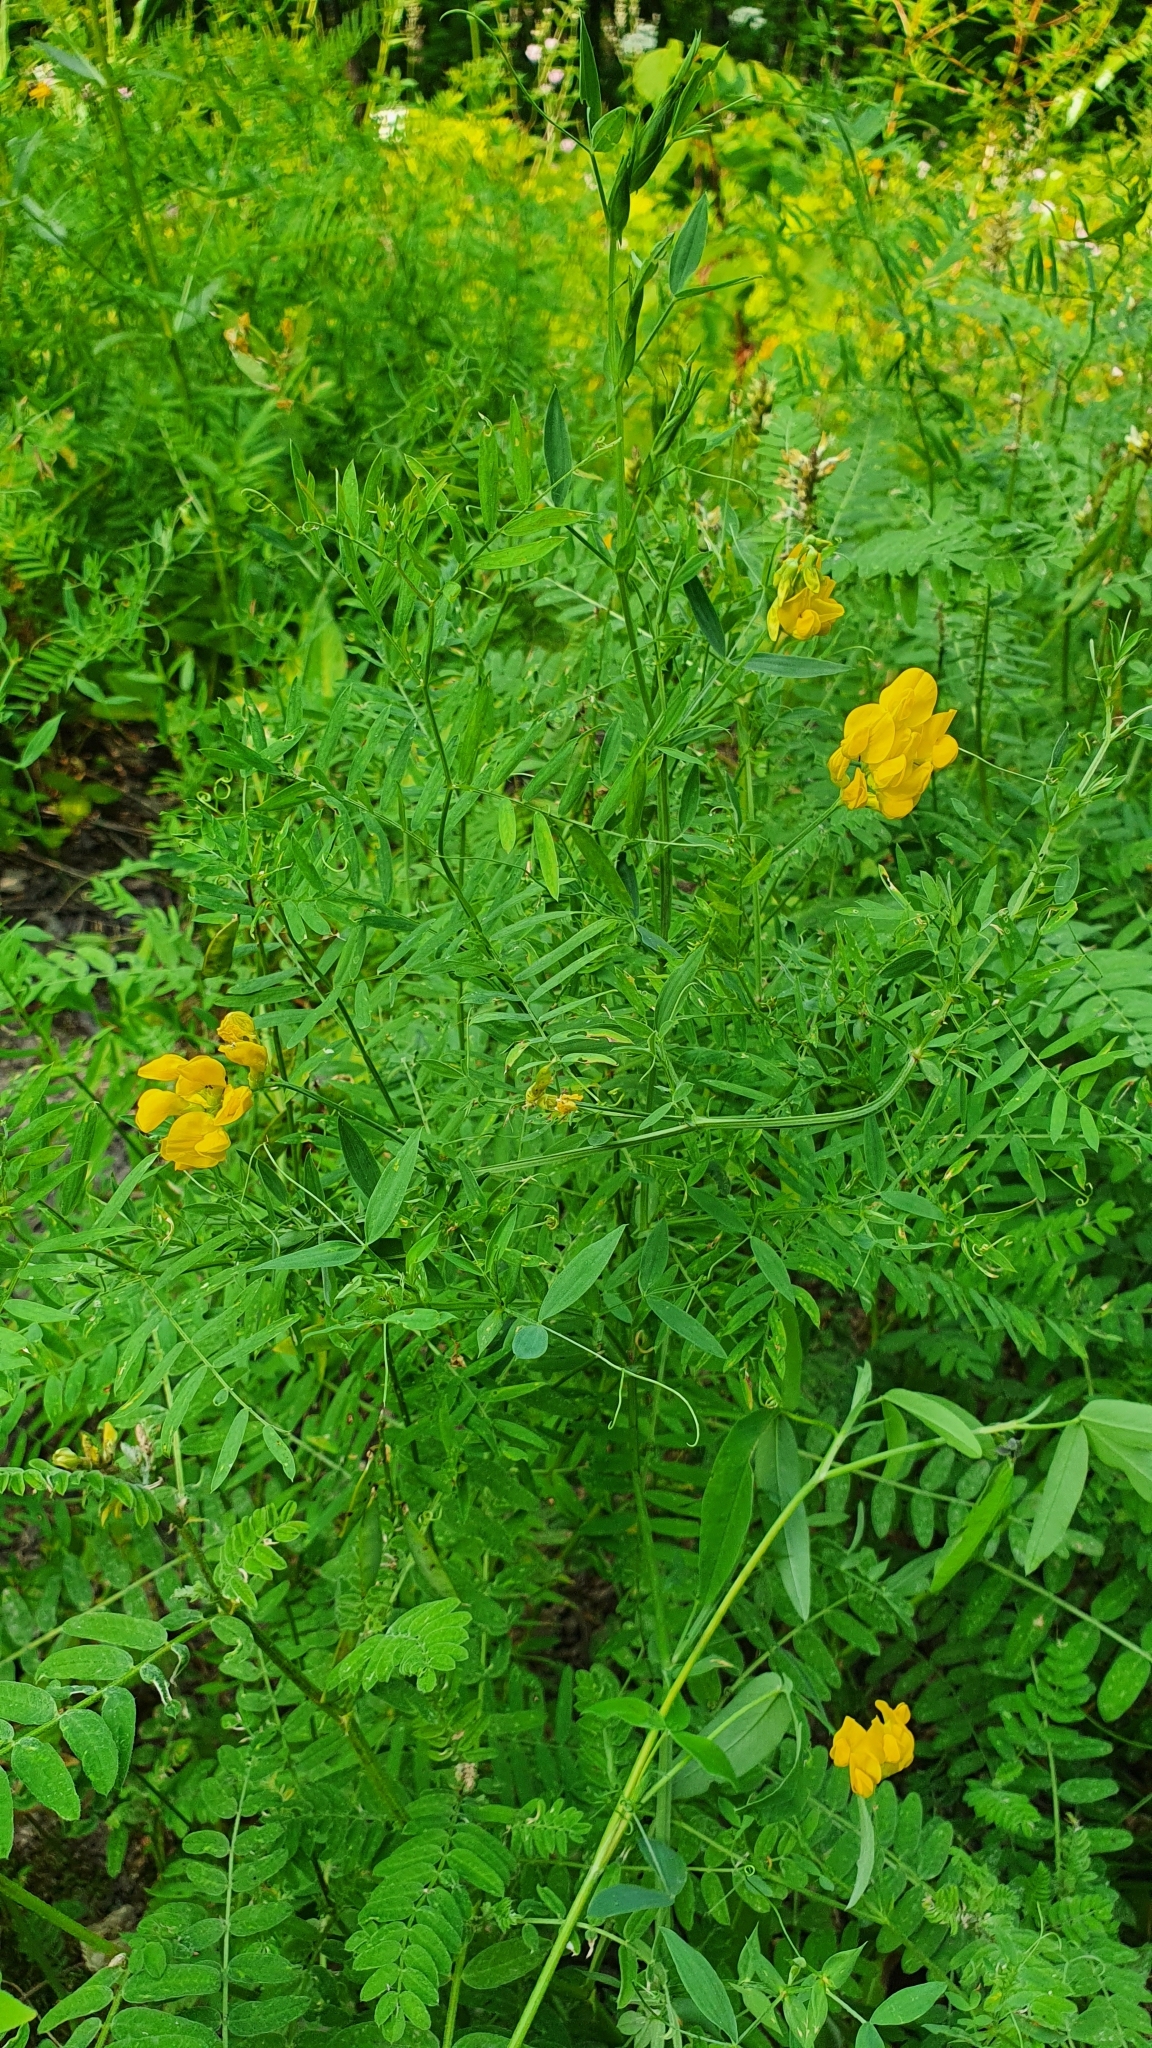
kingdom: Plantae
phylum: Tracheophyta
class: Magnoliopsida
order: Fabales
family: Fabaceae
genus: Lathyrus
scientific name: Lathyrus pratensis
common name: Meadow vetchling
